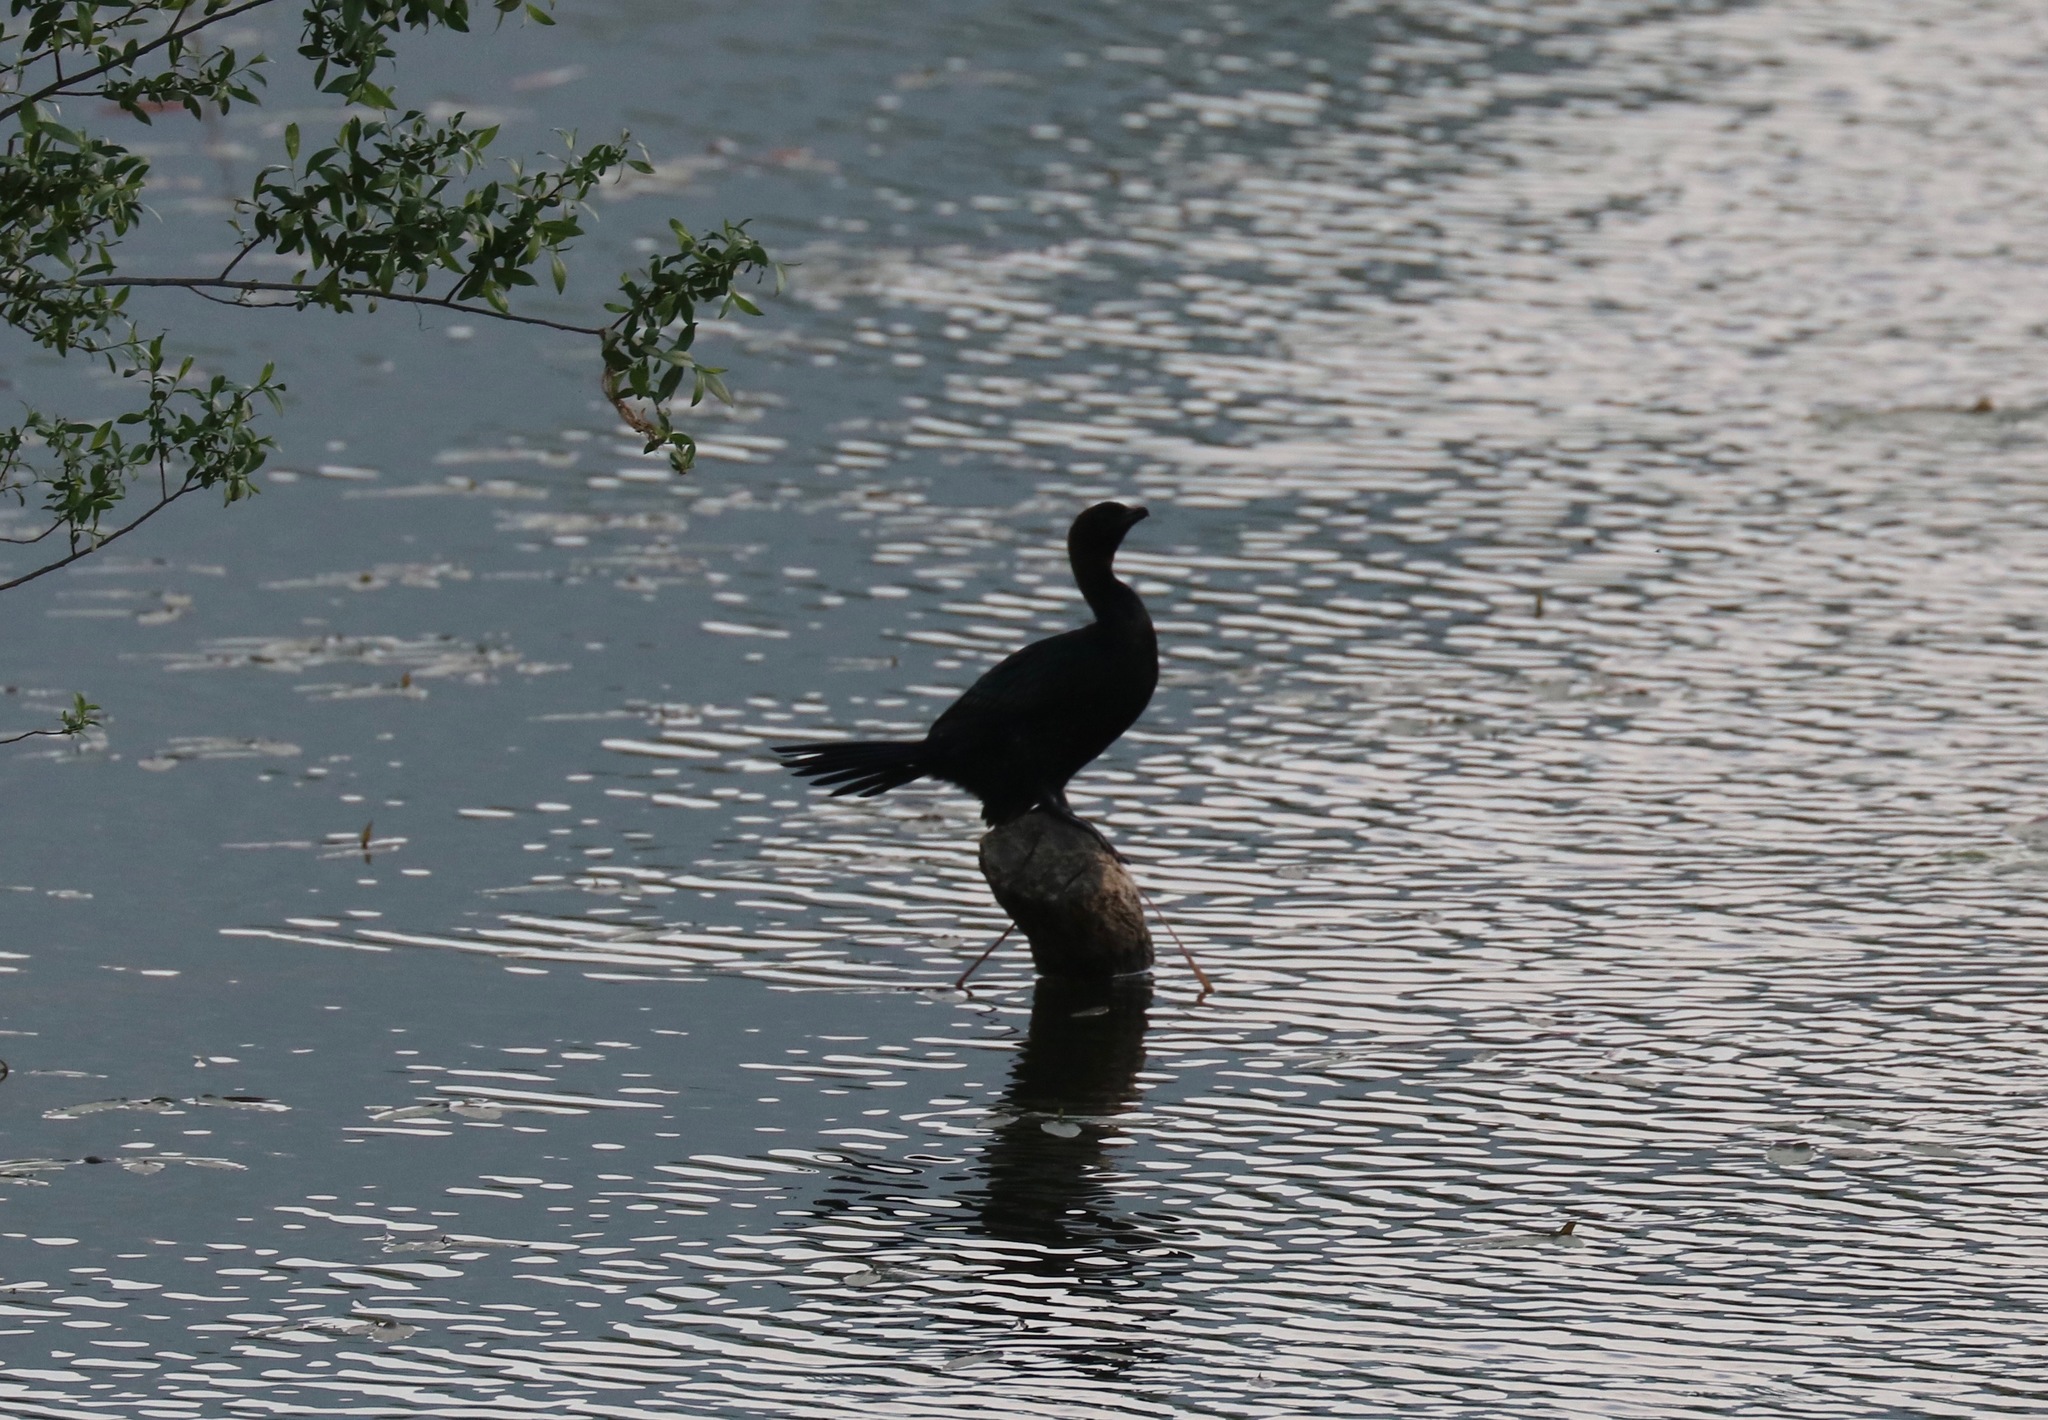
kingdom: Animalia
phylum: Chordata
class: Aves
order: Suliformes
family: Phalacrocoracidae
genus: Microcarbo
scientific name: Microcarbo pygmaeus
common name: Pygmy cormorant
